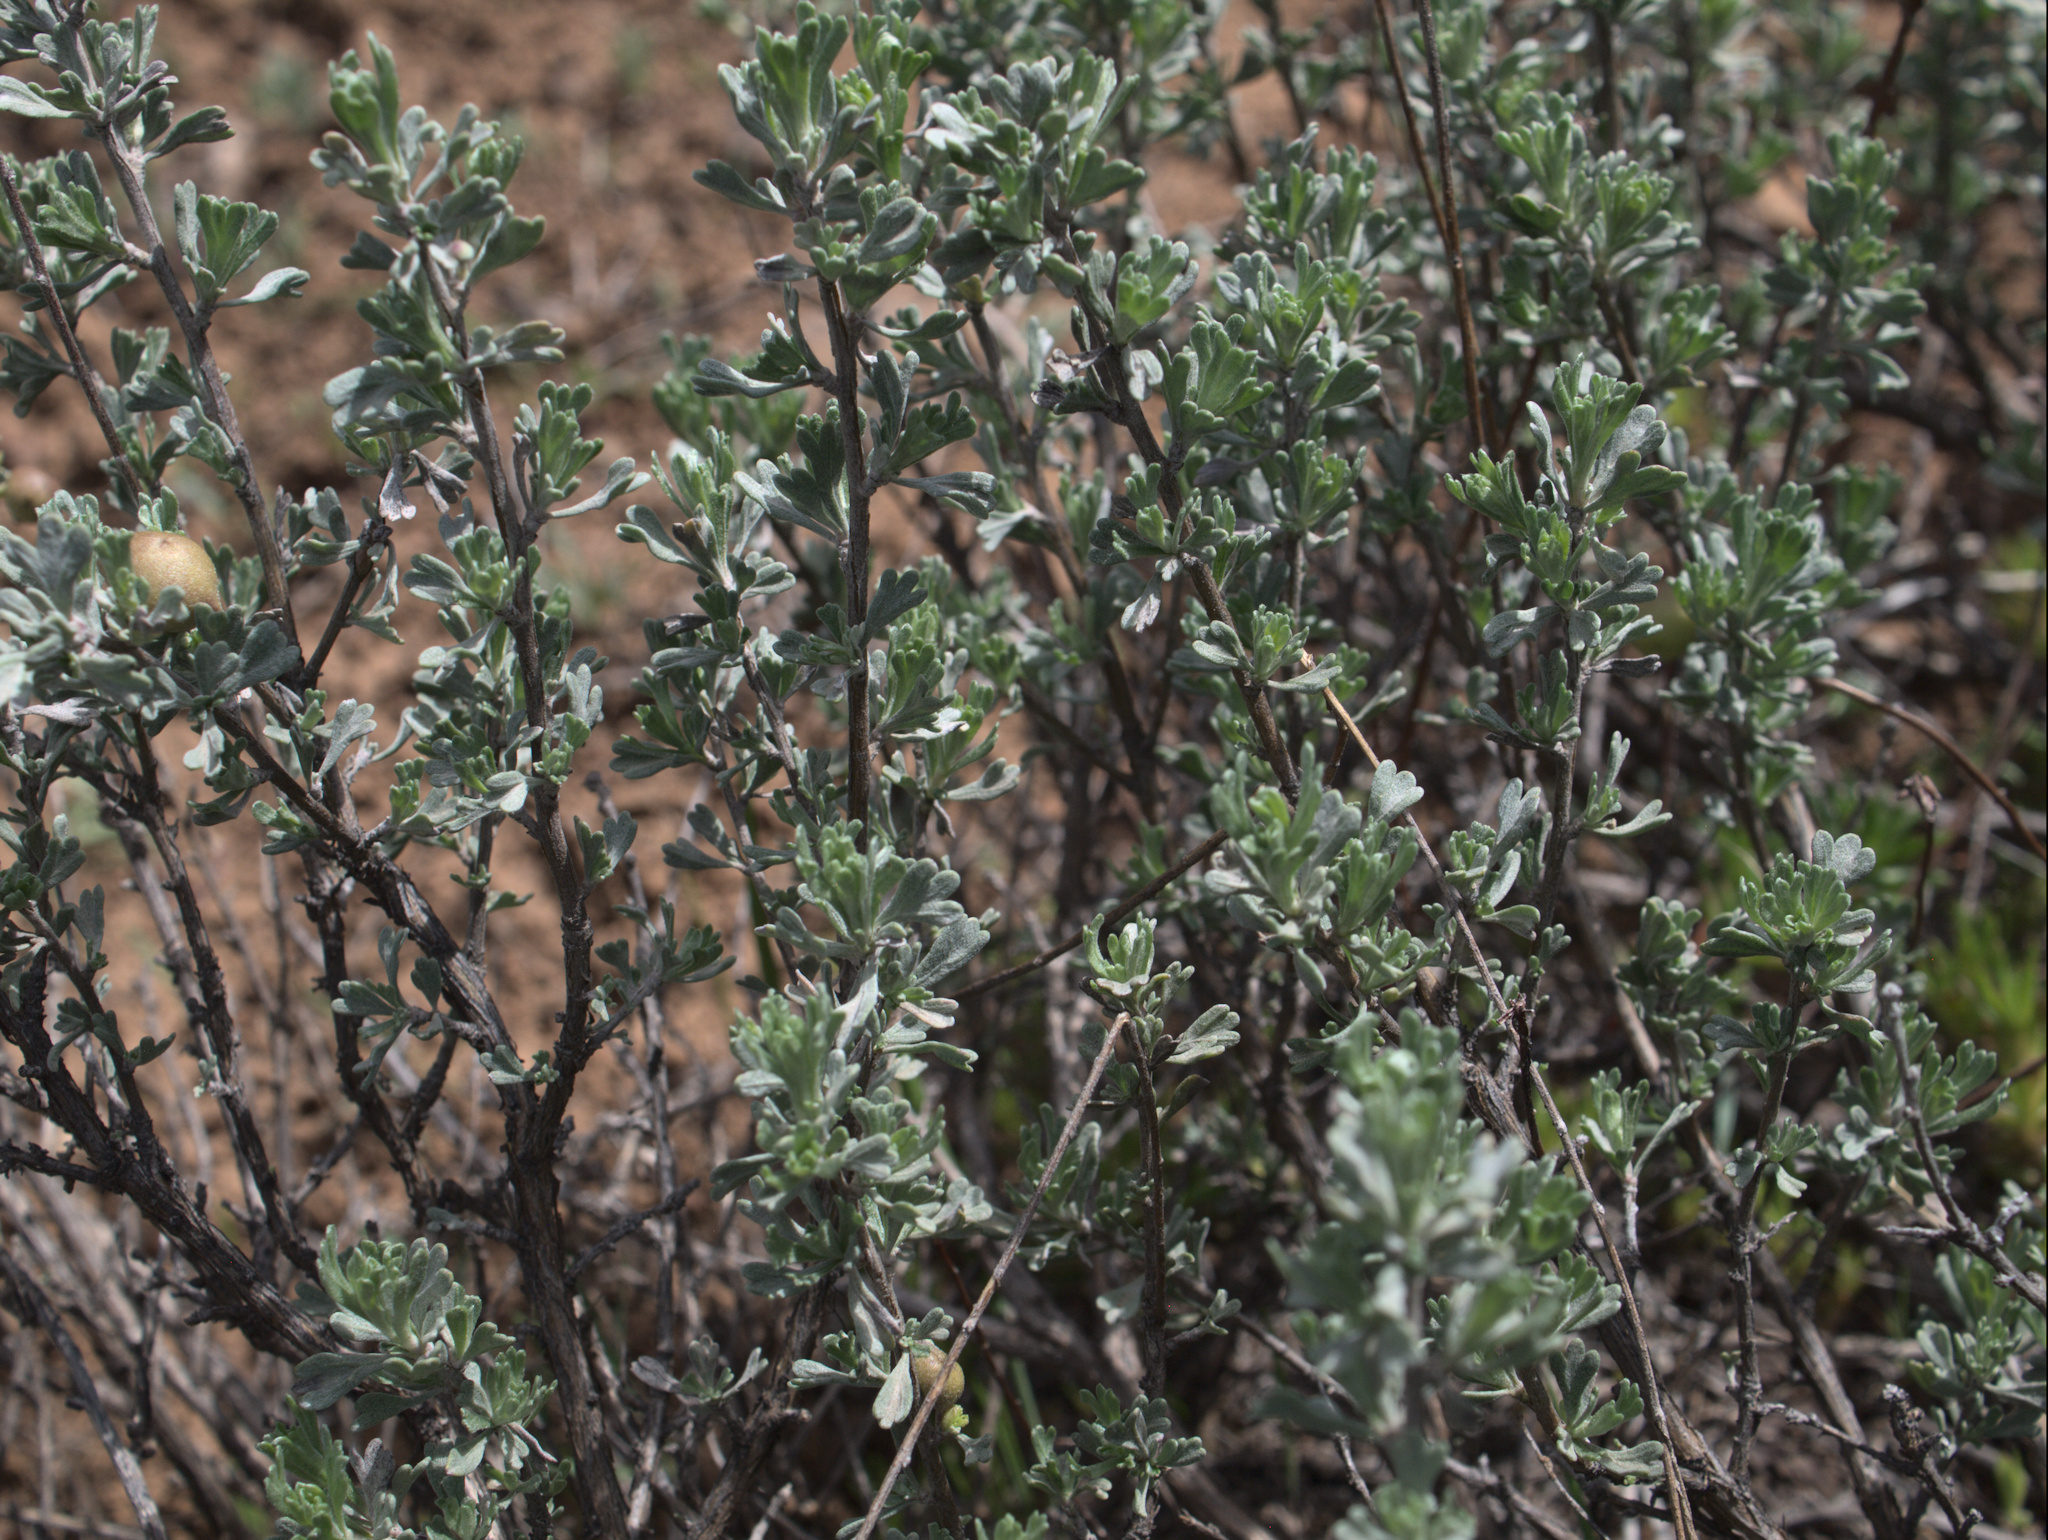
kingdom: Plantae
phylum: Tracheophyta
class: Magnoliopsida
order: Asterales
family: Asteraceae
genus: Artemisia
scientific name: Artemisia arbuscula
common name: Sagebrush
